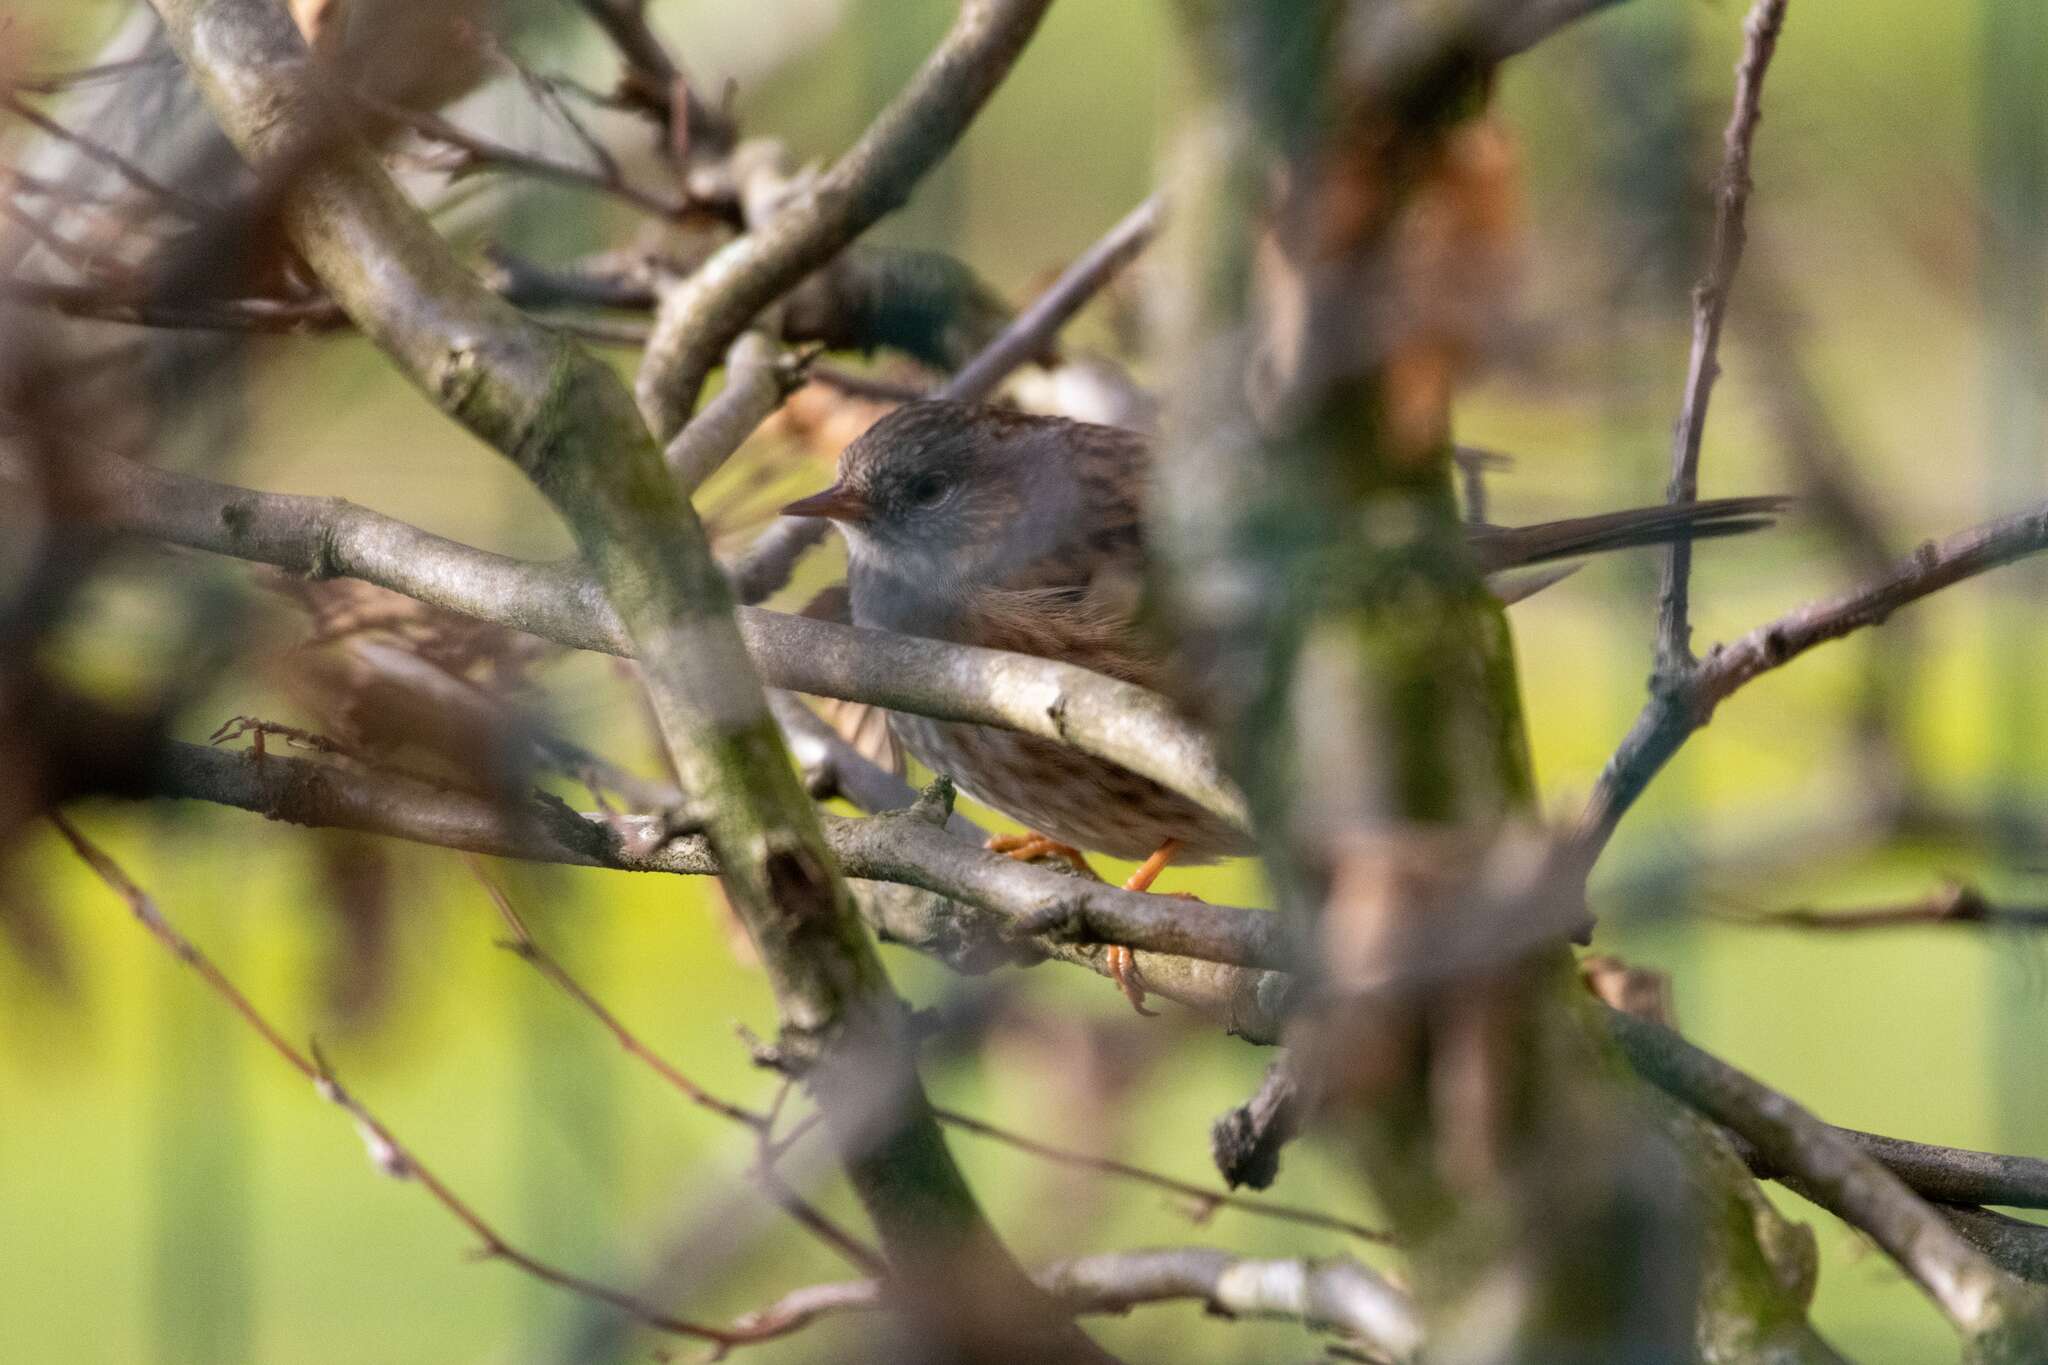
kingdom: Animalia
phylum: Chordata
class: Aves
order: Passeriformes
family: Prunellidae
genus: Prunella
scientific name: Prunella modularis
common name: Dunnock
